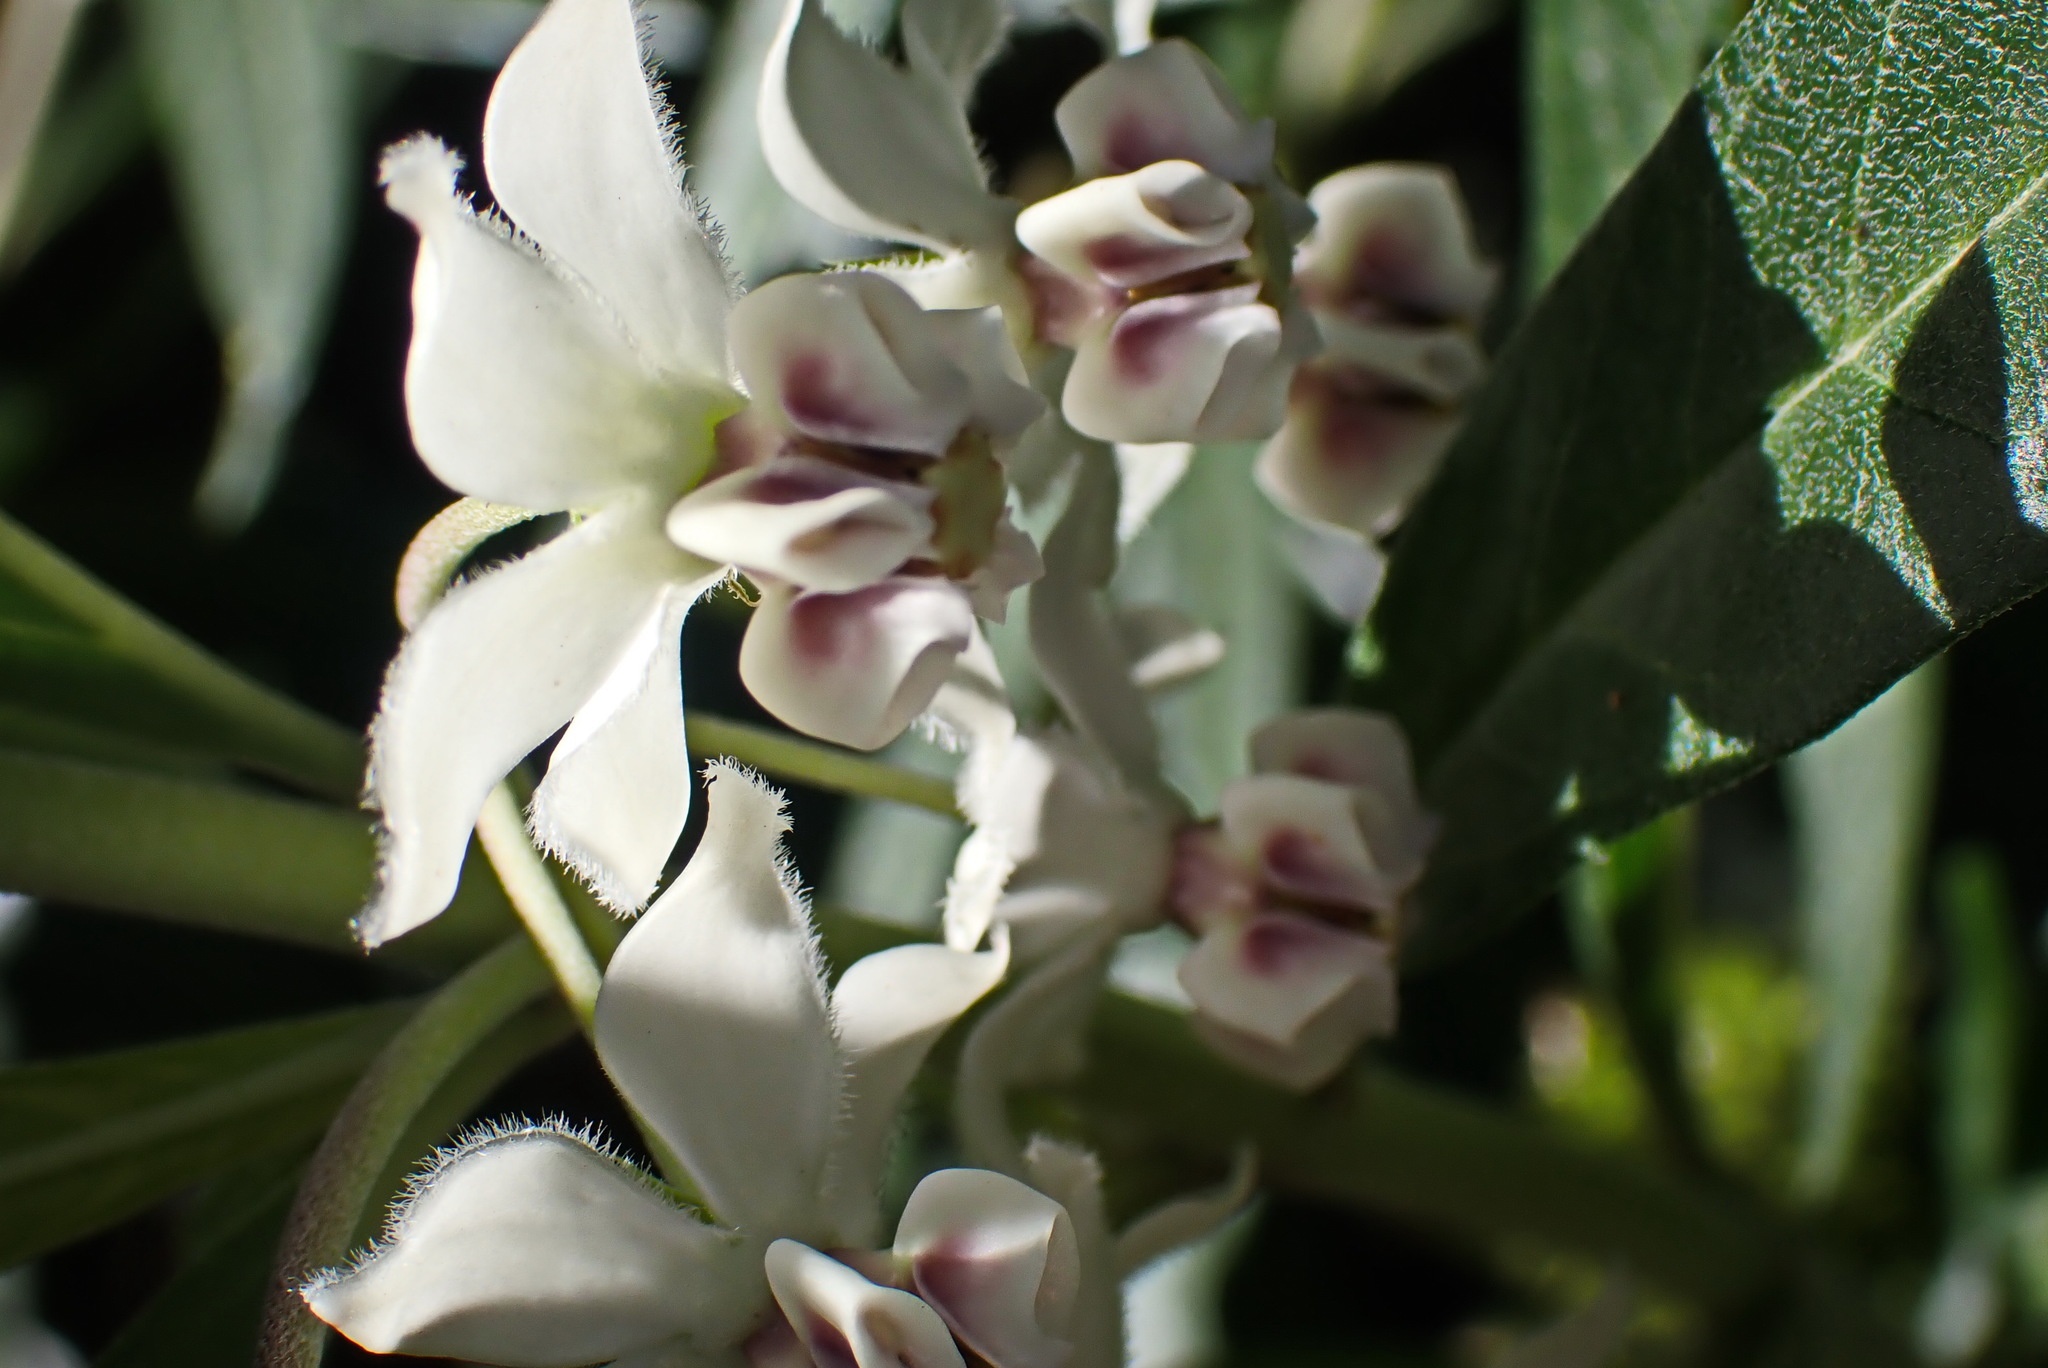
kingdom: Plantae
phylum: Tracheophyta
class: Magnoliopsida
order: Gentianales
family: Apocynaceae
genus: Gomphocarpus
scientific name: Gomphocarpus physocarpus
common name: Balloon cotton bush
